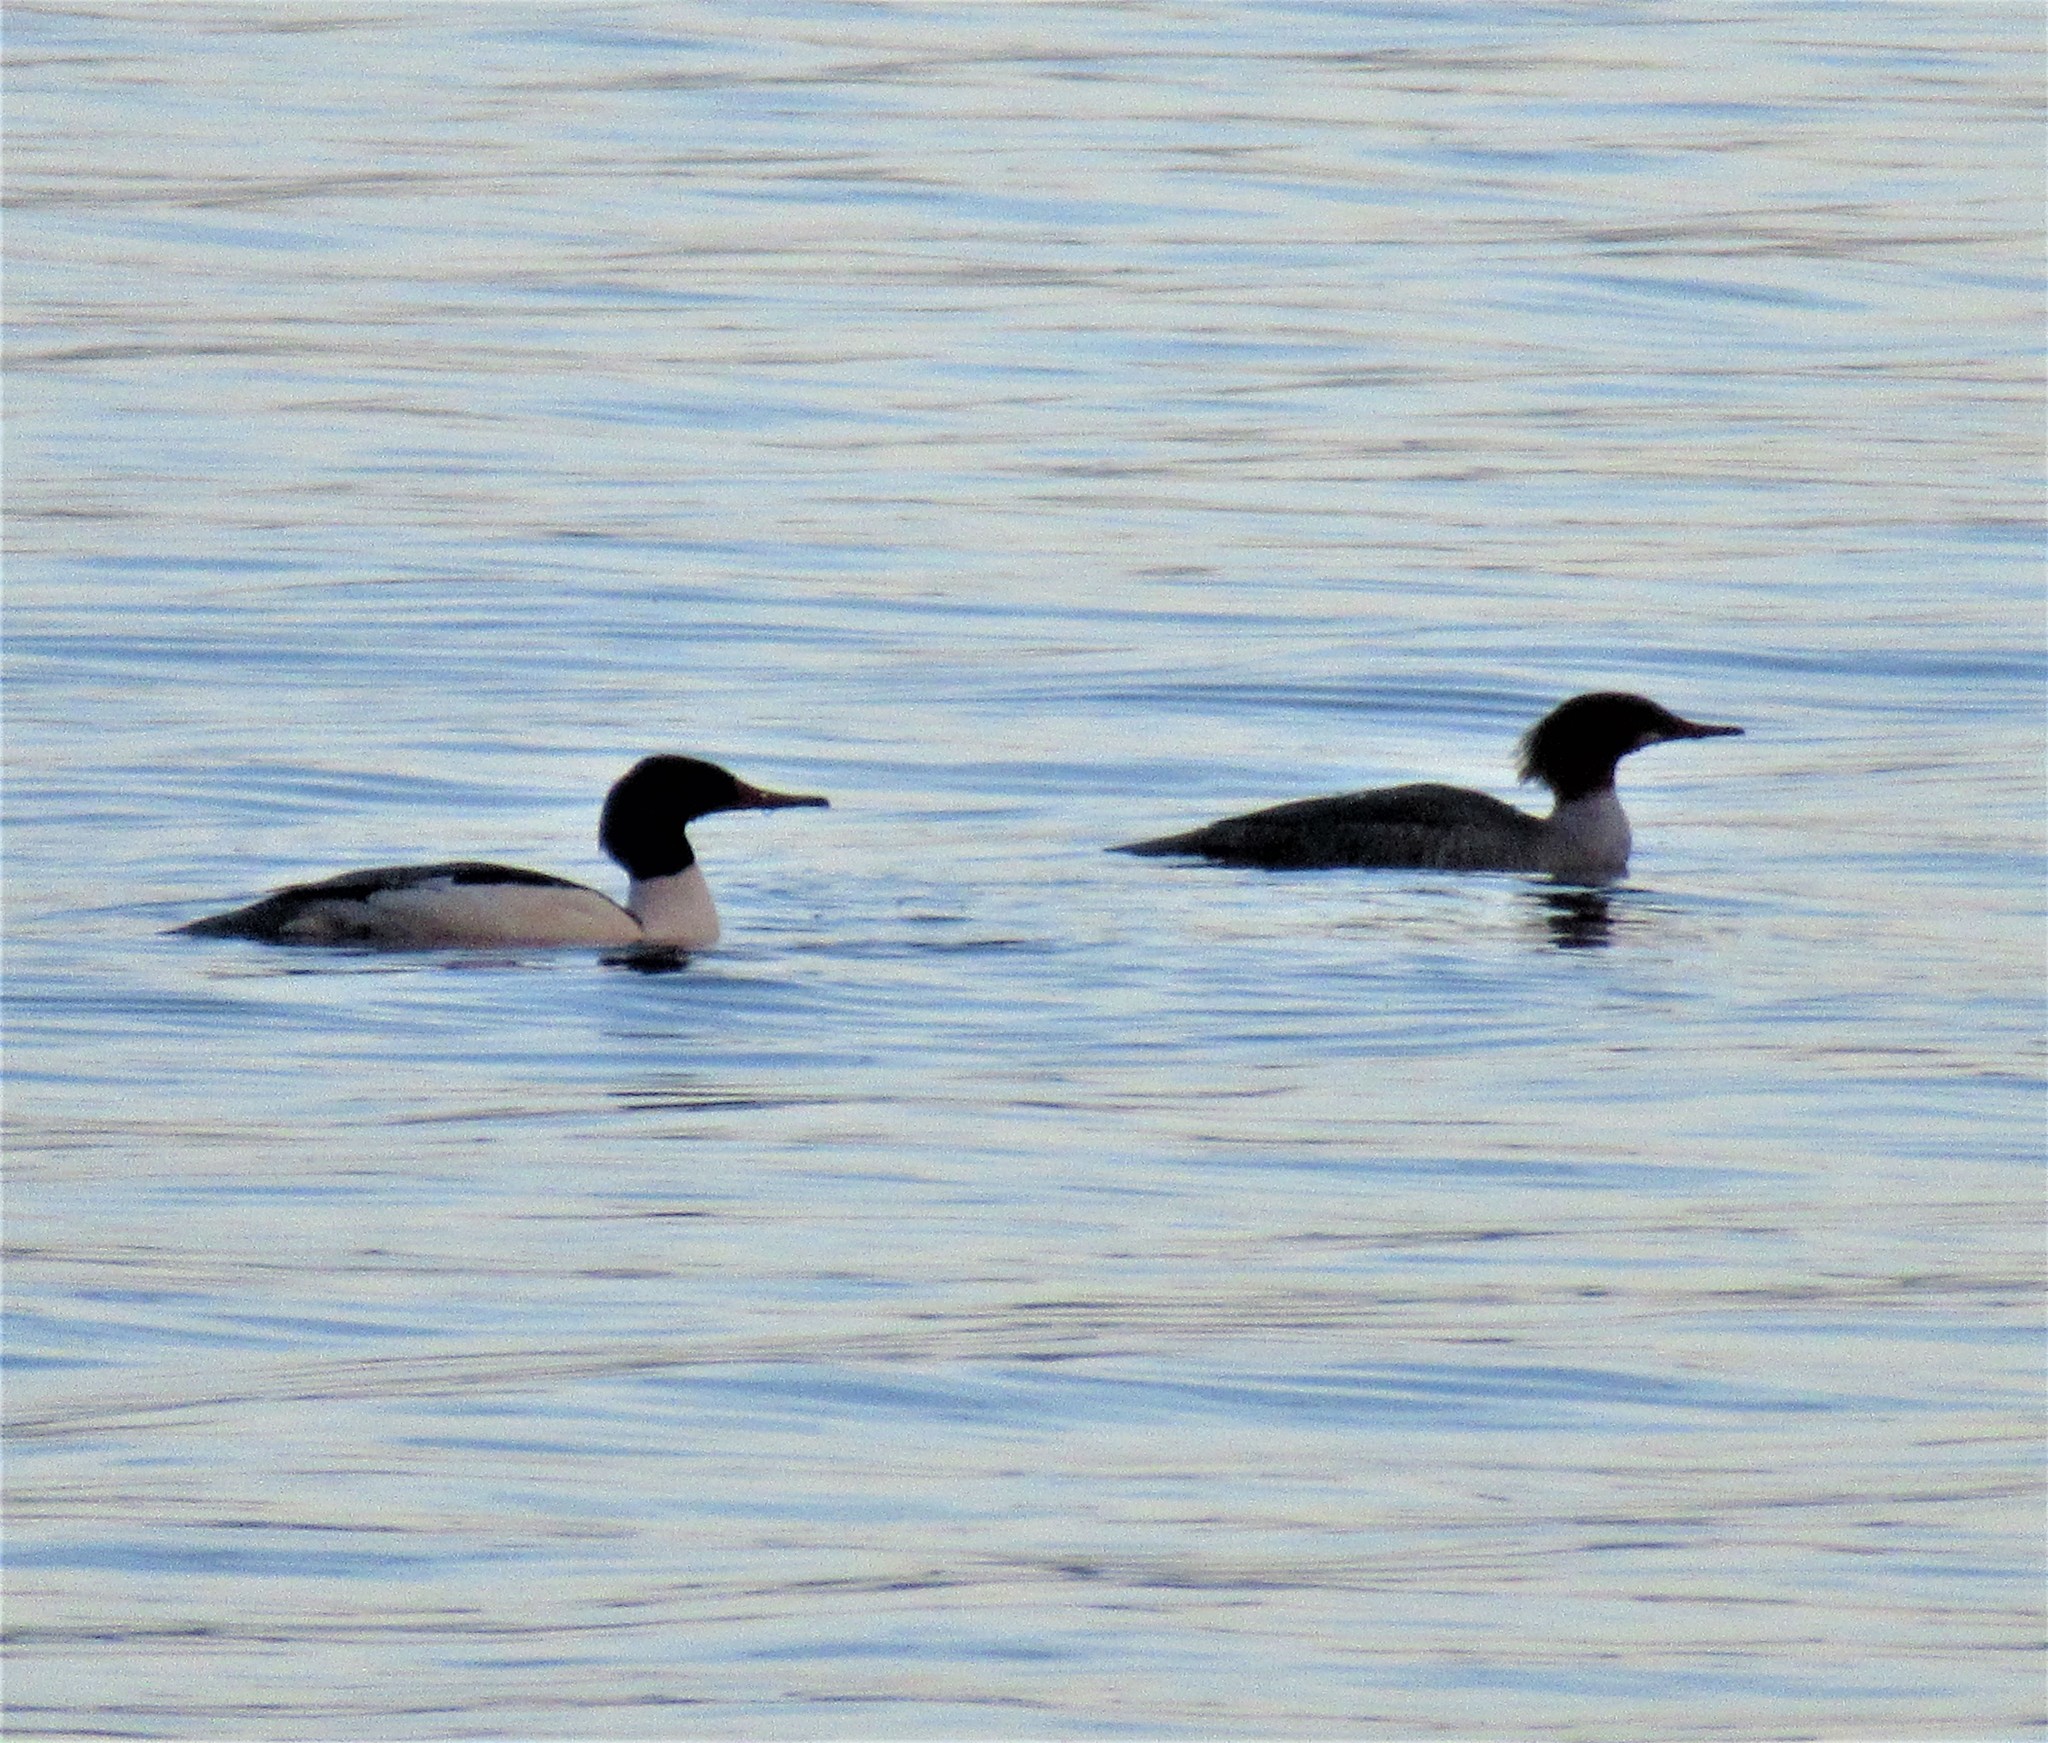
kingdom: Animalia
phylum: Chordata
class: Aves
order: Anseriformes
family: Anatidae
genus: Mergus
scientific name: Mergus merganser
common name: Common merganser
